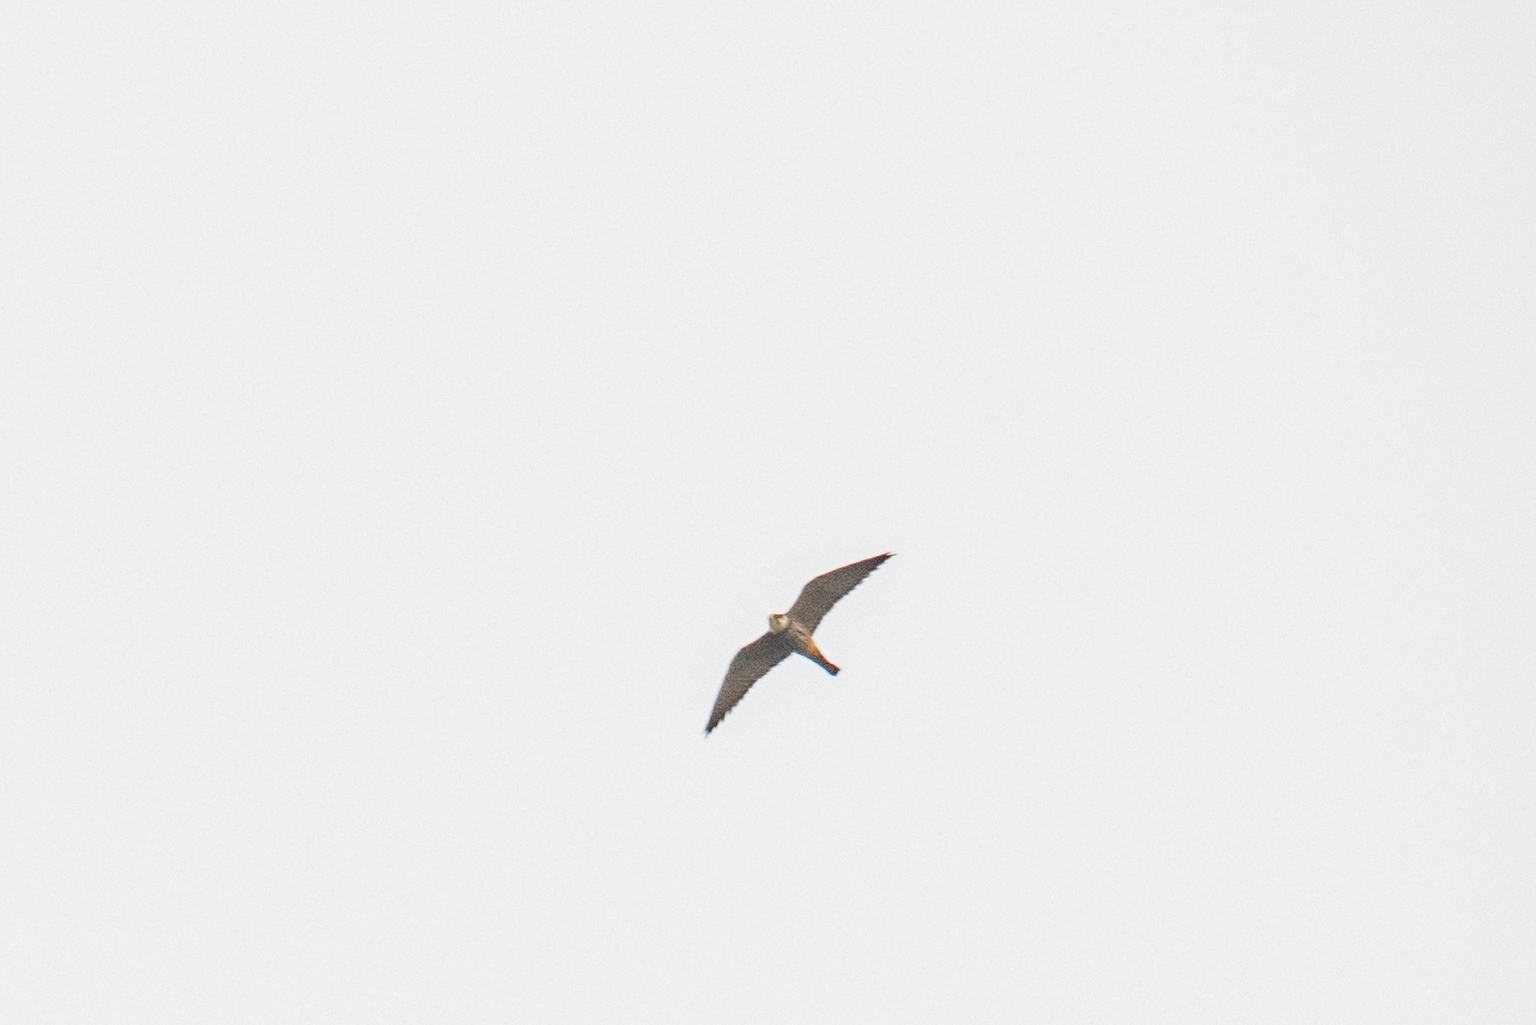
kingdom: Animalia
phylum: Chordata
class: Aves
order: Falconiformes
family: Falconidae
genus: Falco
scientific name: Falco subbuteo
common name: Eurasian hobby
